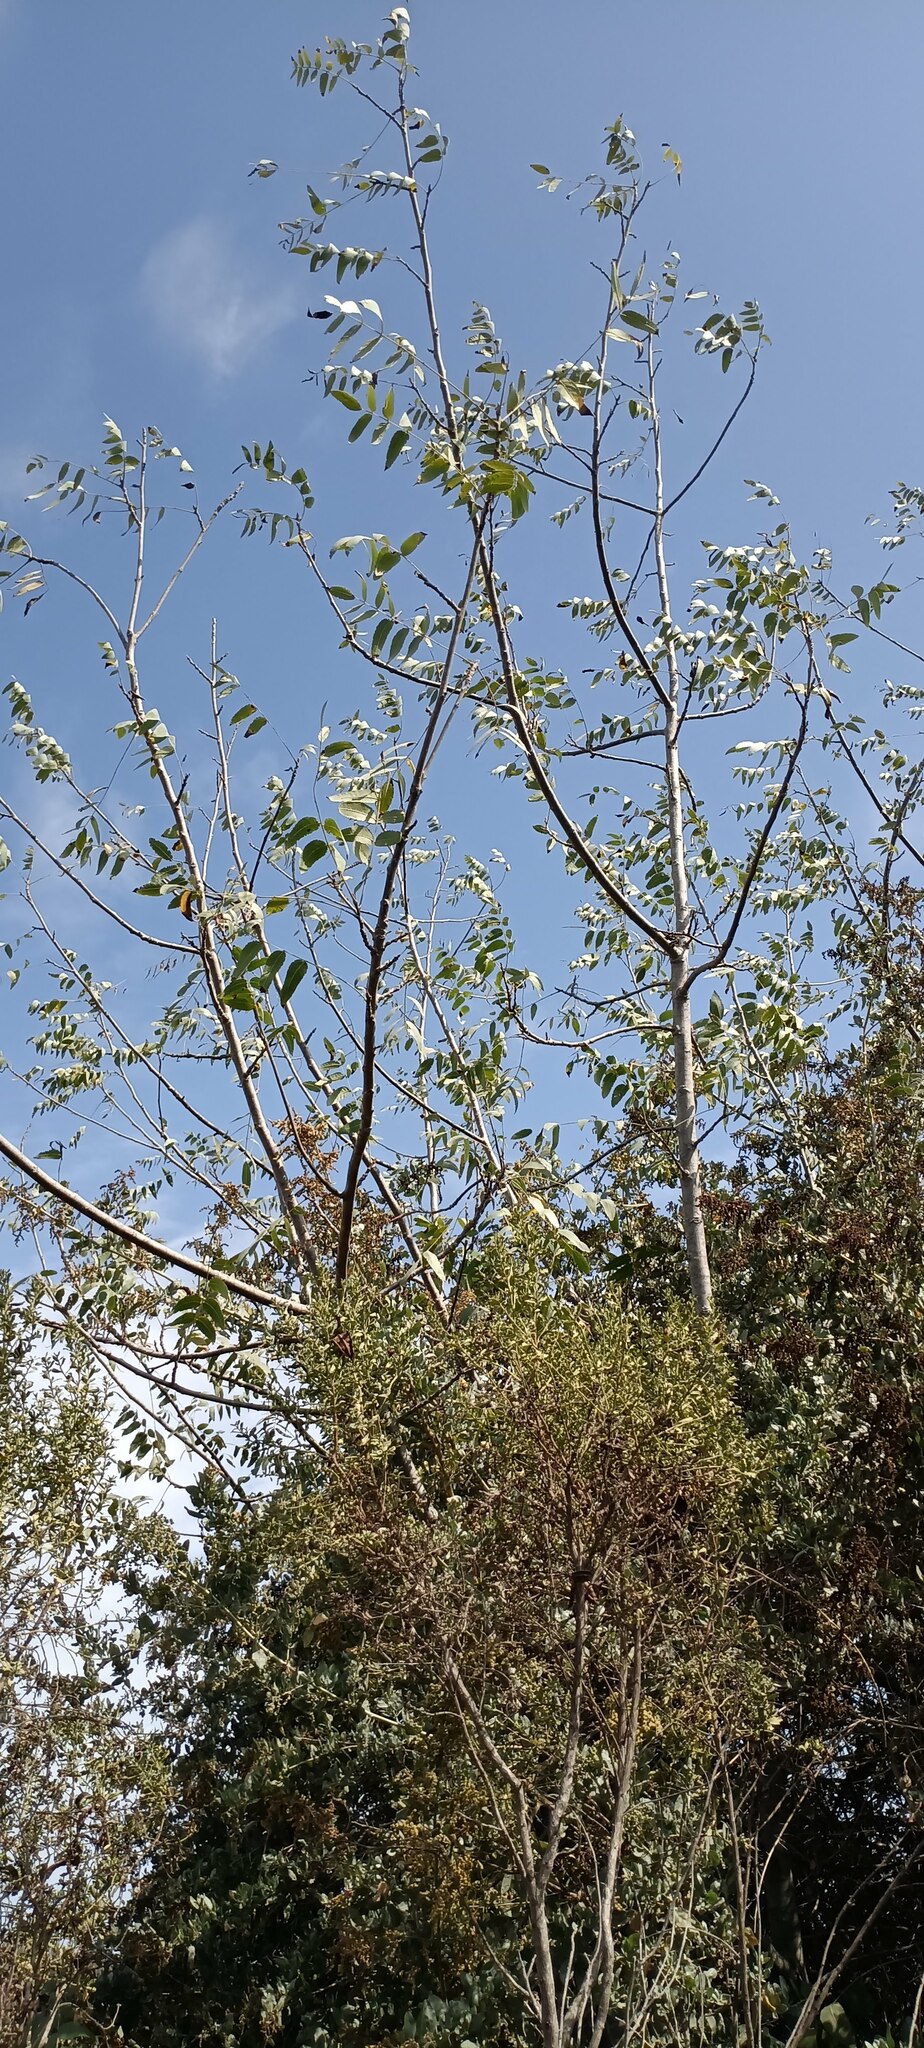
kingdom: Plantae
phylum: Tracheophyta
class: Magnoliopsida
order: Fagales
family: Juglandaceae
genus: Juglans
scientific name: Juglans californica
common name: Southern california black walnut
